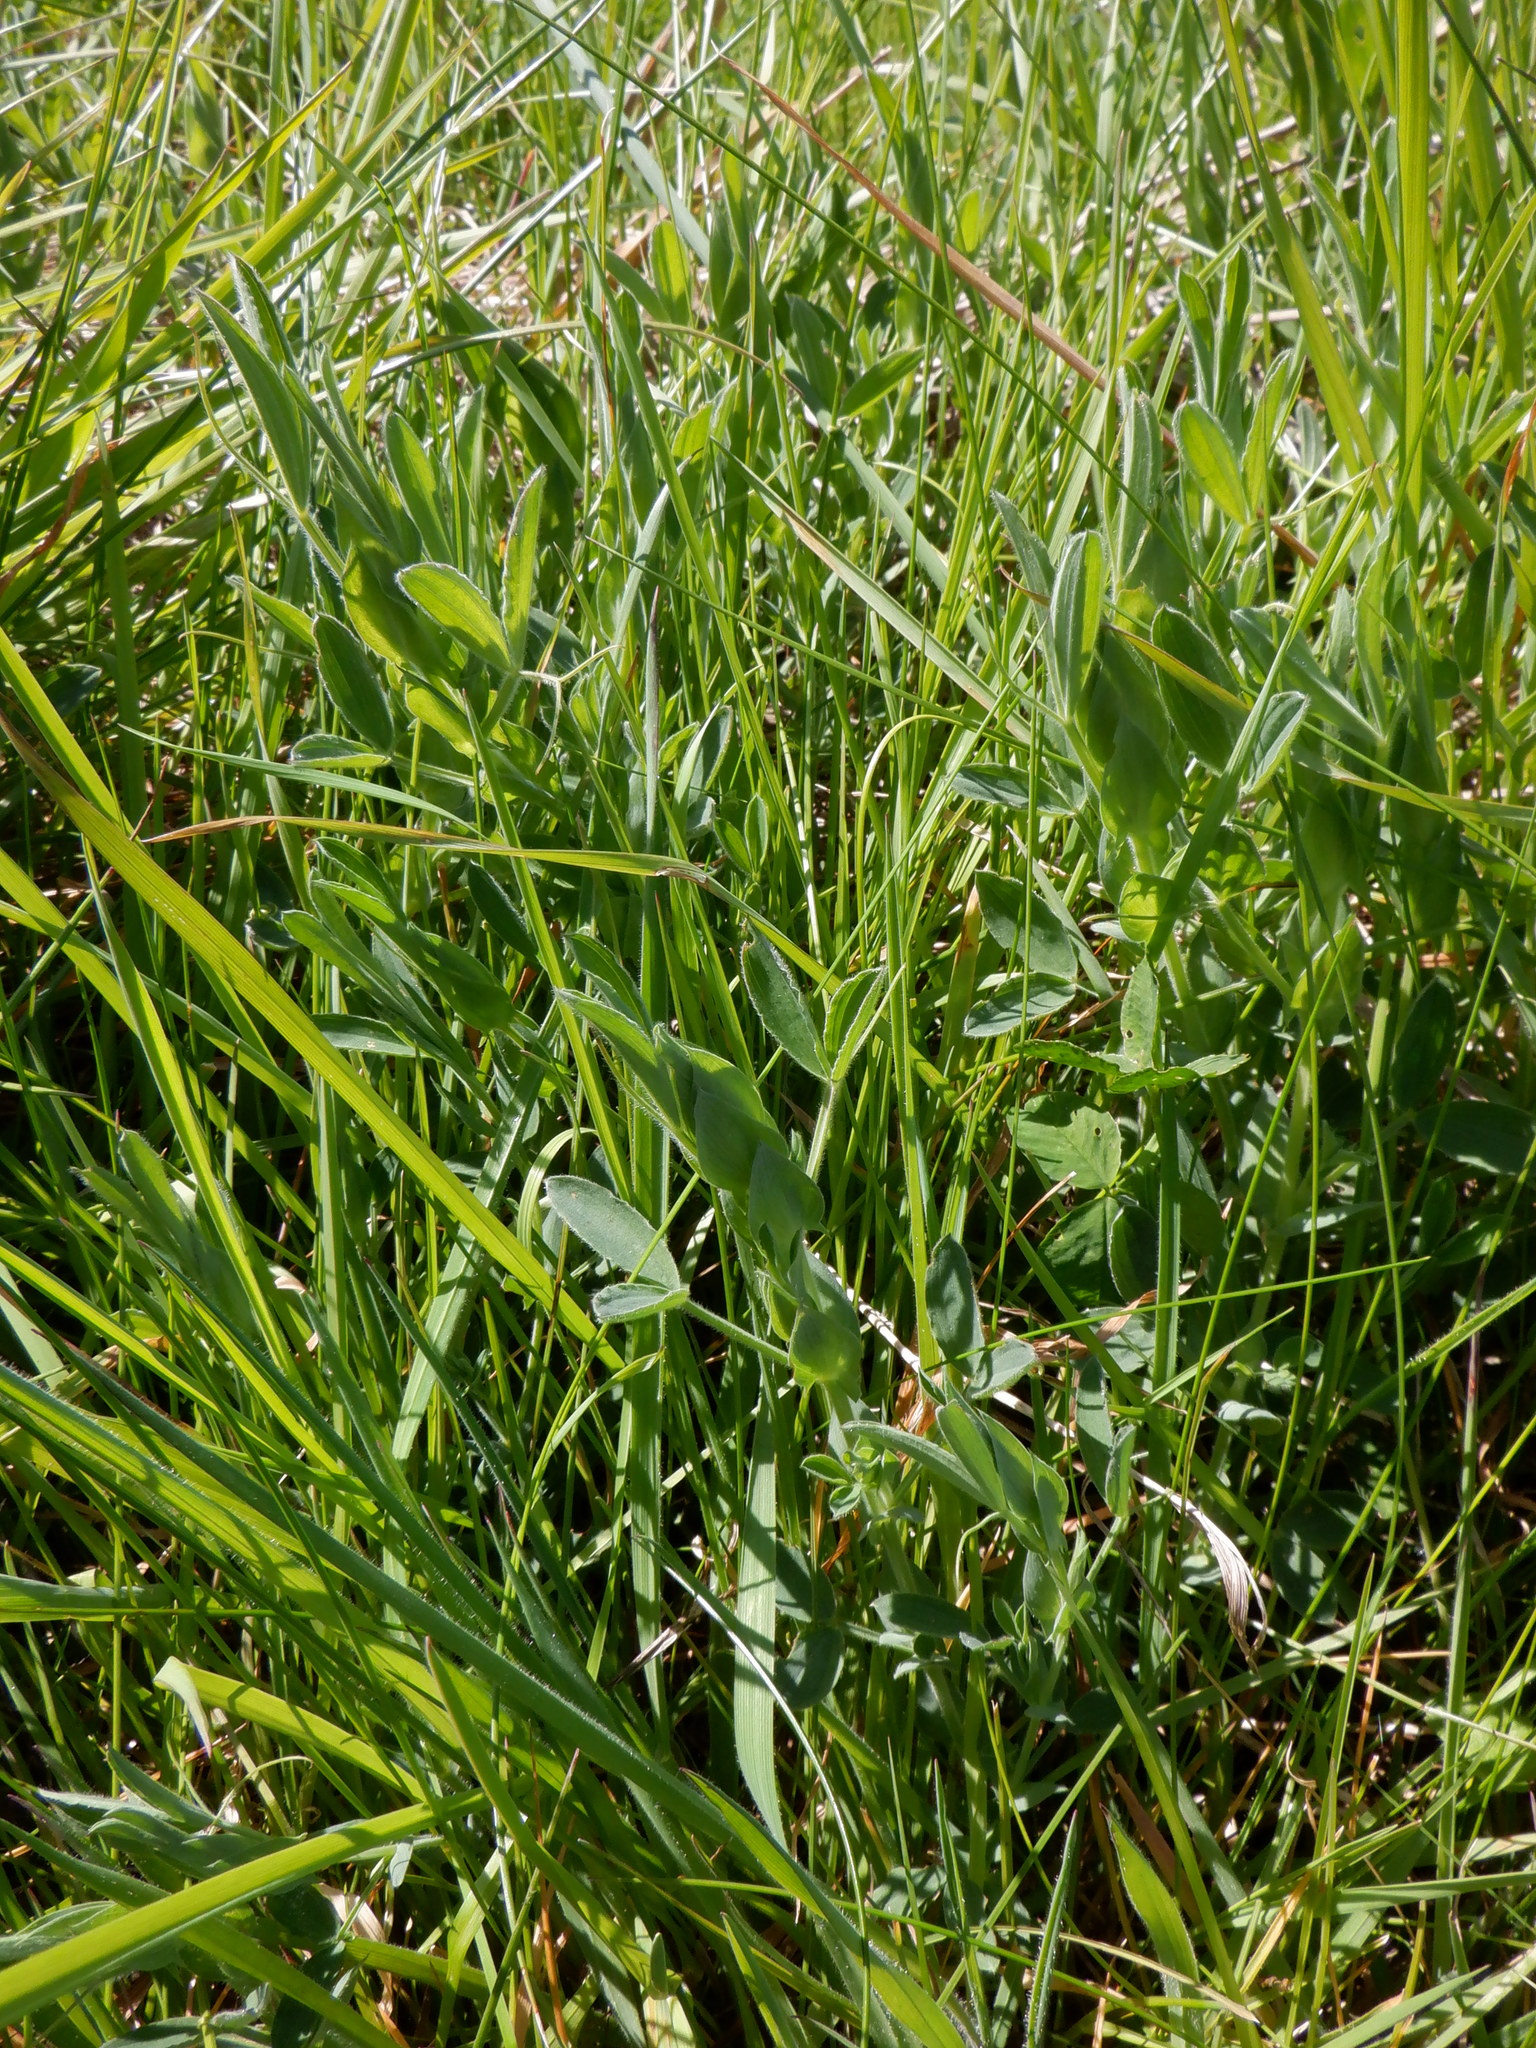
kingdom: Plantae
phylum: Tracheophyta
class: Magnoliopsida
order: Fabales
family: Fabaceae
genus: Lathyrus
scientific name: Lathyrus pratensis
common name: Meadow vetchling
